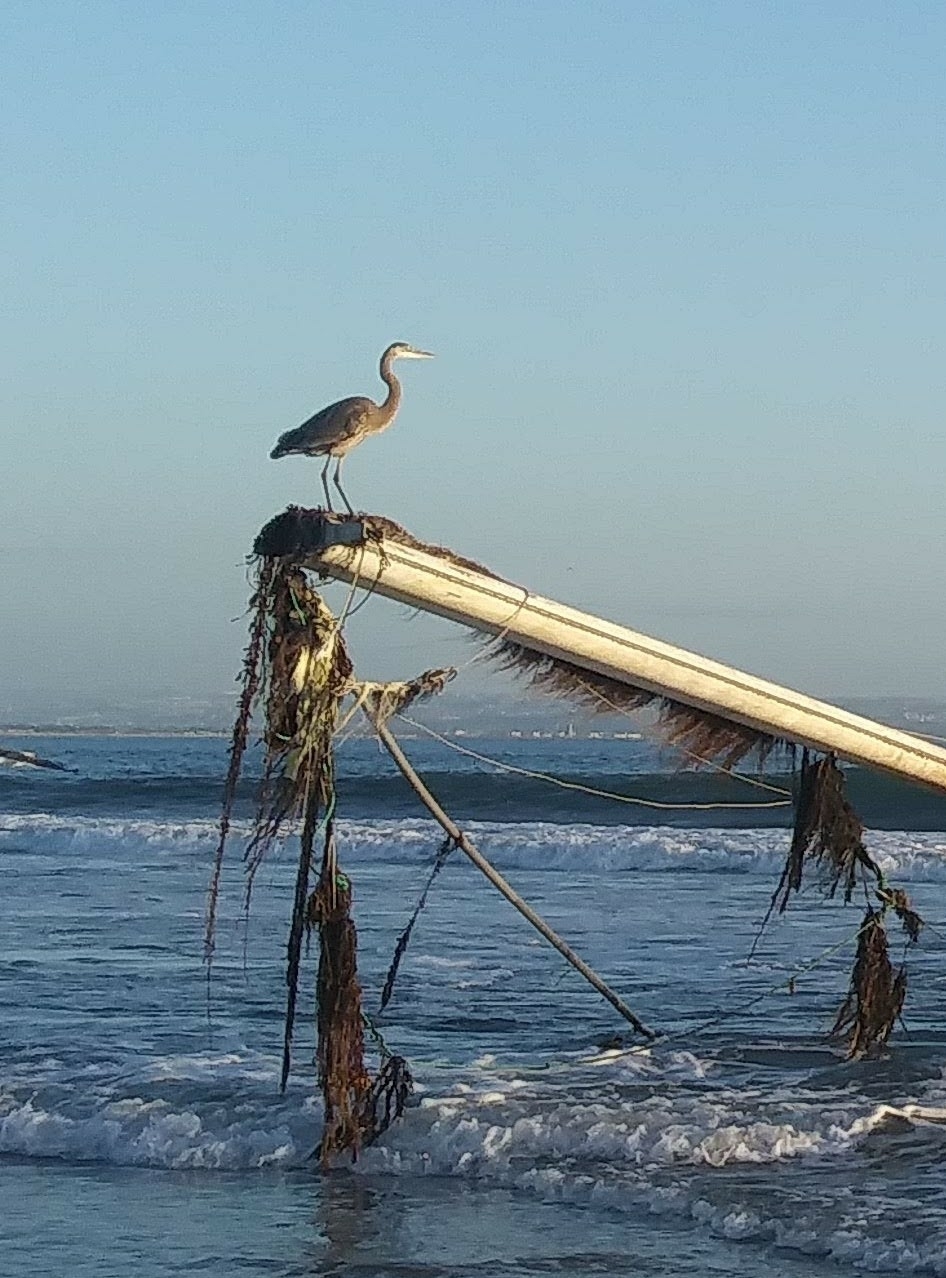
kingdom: Animalia
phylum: Chordata
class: Aves
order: Pelecaniformes
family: Ardeidae
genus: Ardea
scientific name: Ardea herodias
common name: Great blue heron
